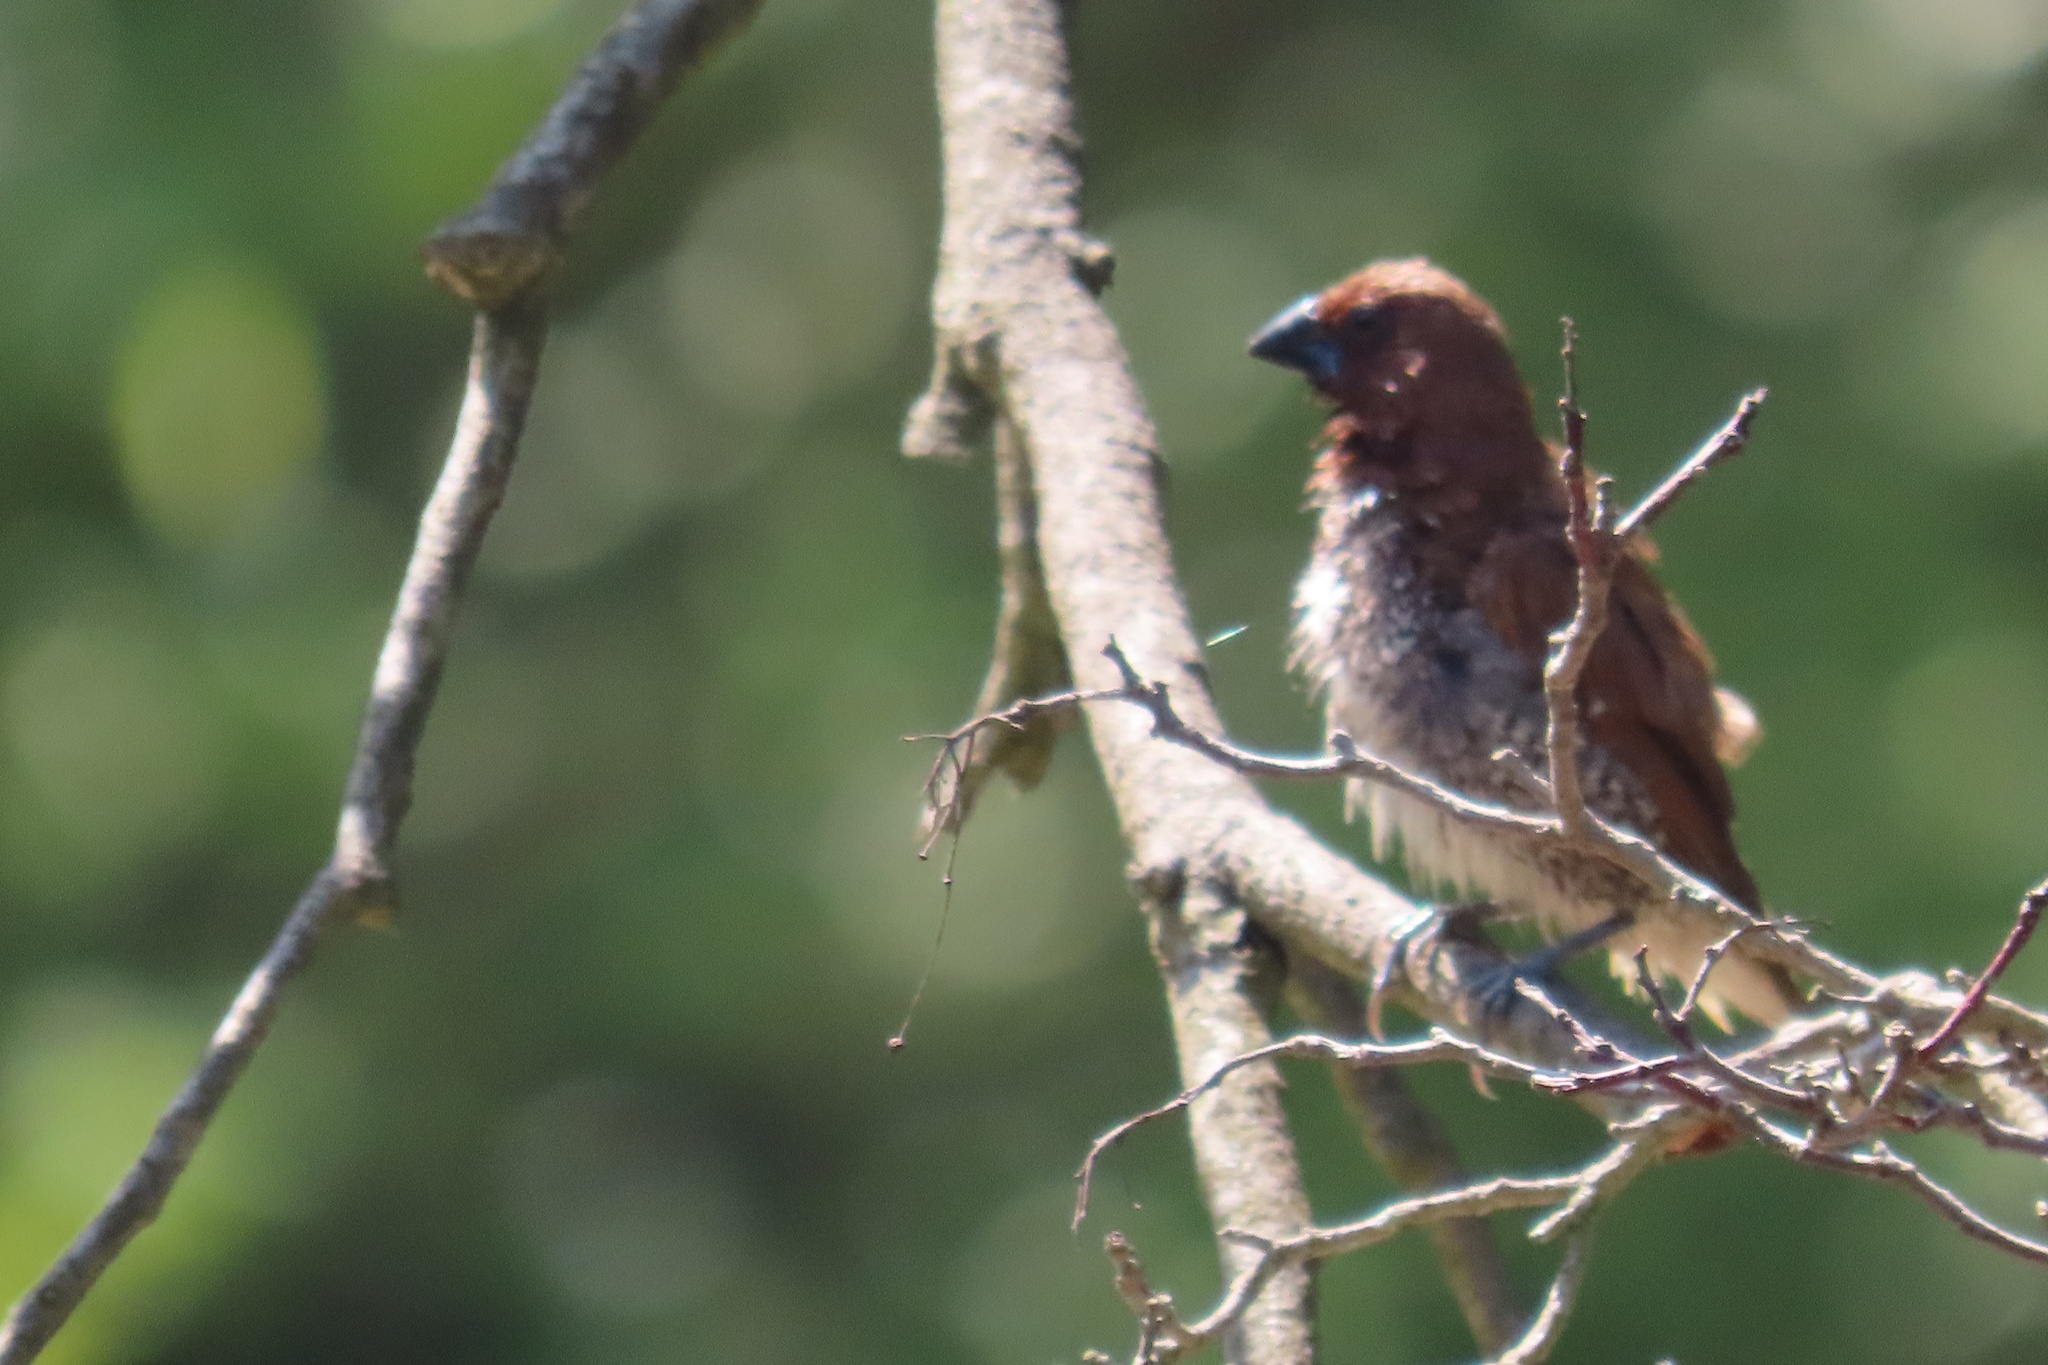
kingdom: Animalia
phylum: Chordata
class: Aves
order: Passeriformes
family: Estrildidae
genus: Lonchura
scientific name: Lonchura punctulata
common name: Scaly-breasted munia
